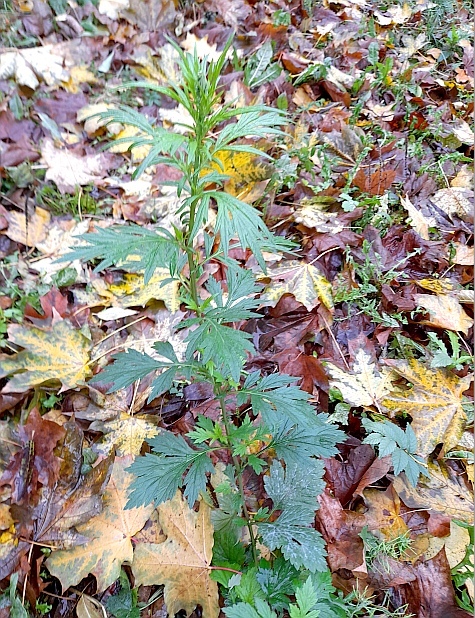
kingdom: Plantae
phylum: Tracheophyta
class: Magnoliopsida
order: Asterales
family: Asteraceae
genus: Artemisia
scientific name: Artemisia vulgaris
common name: Mugwort
